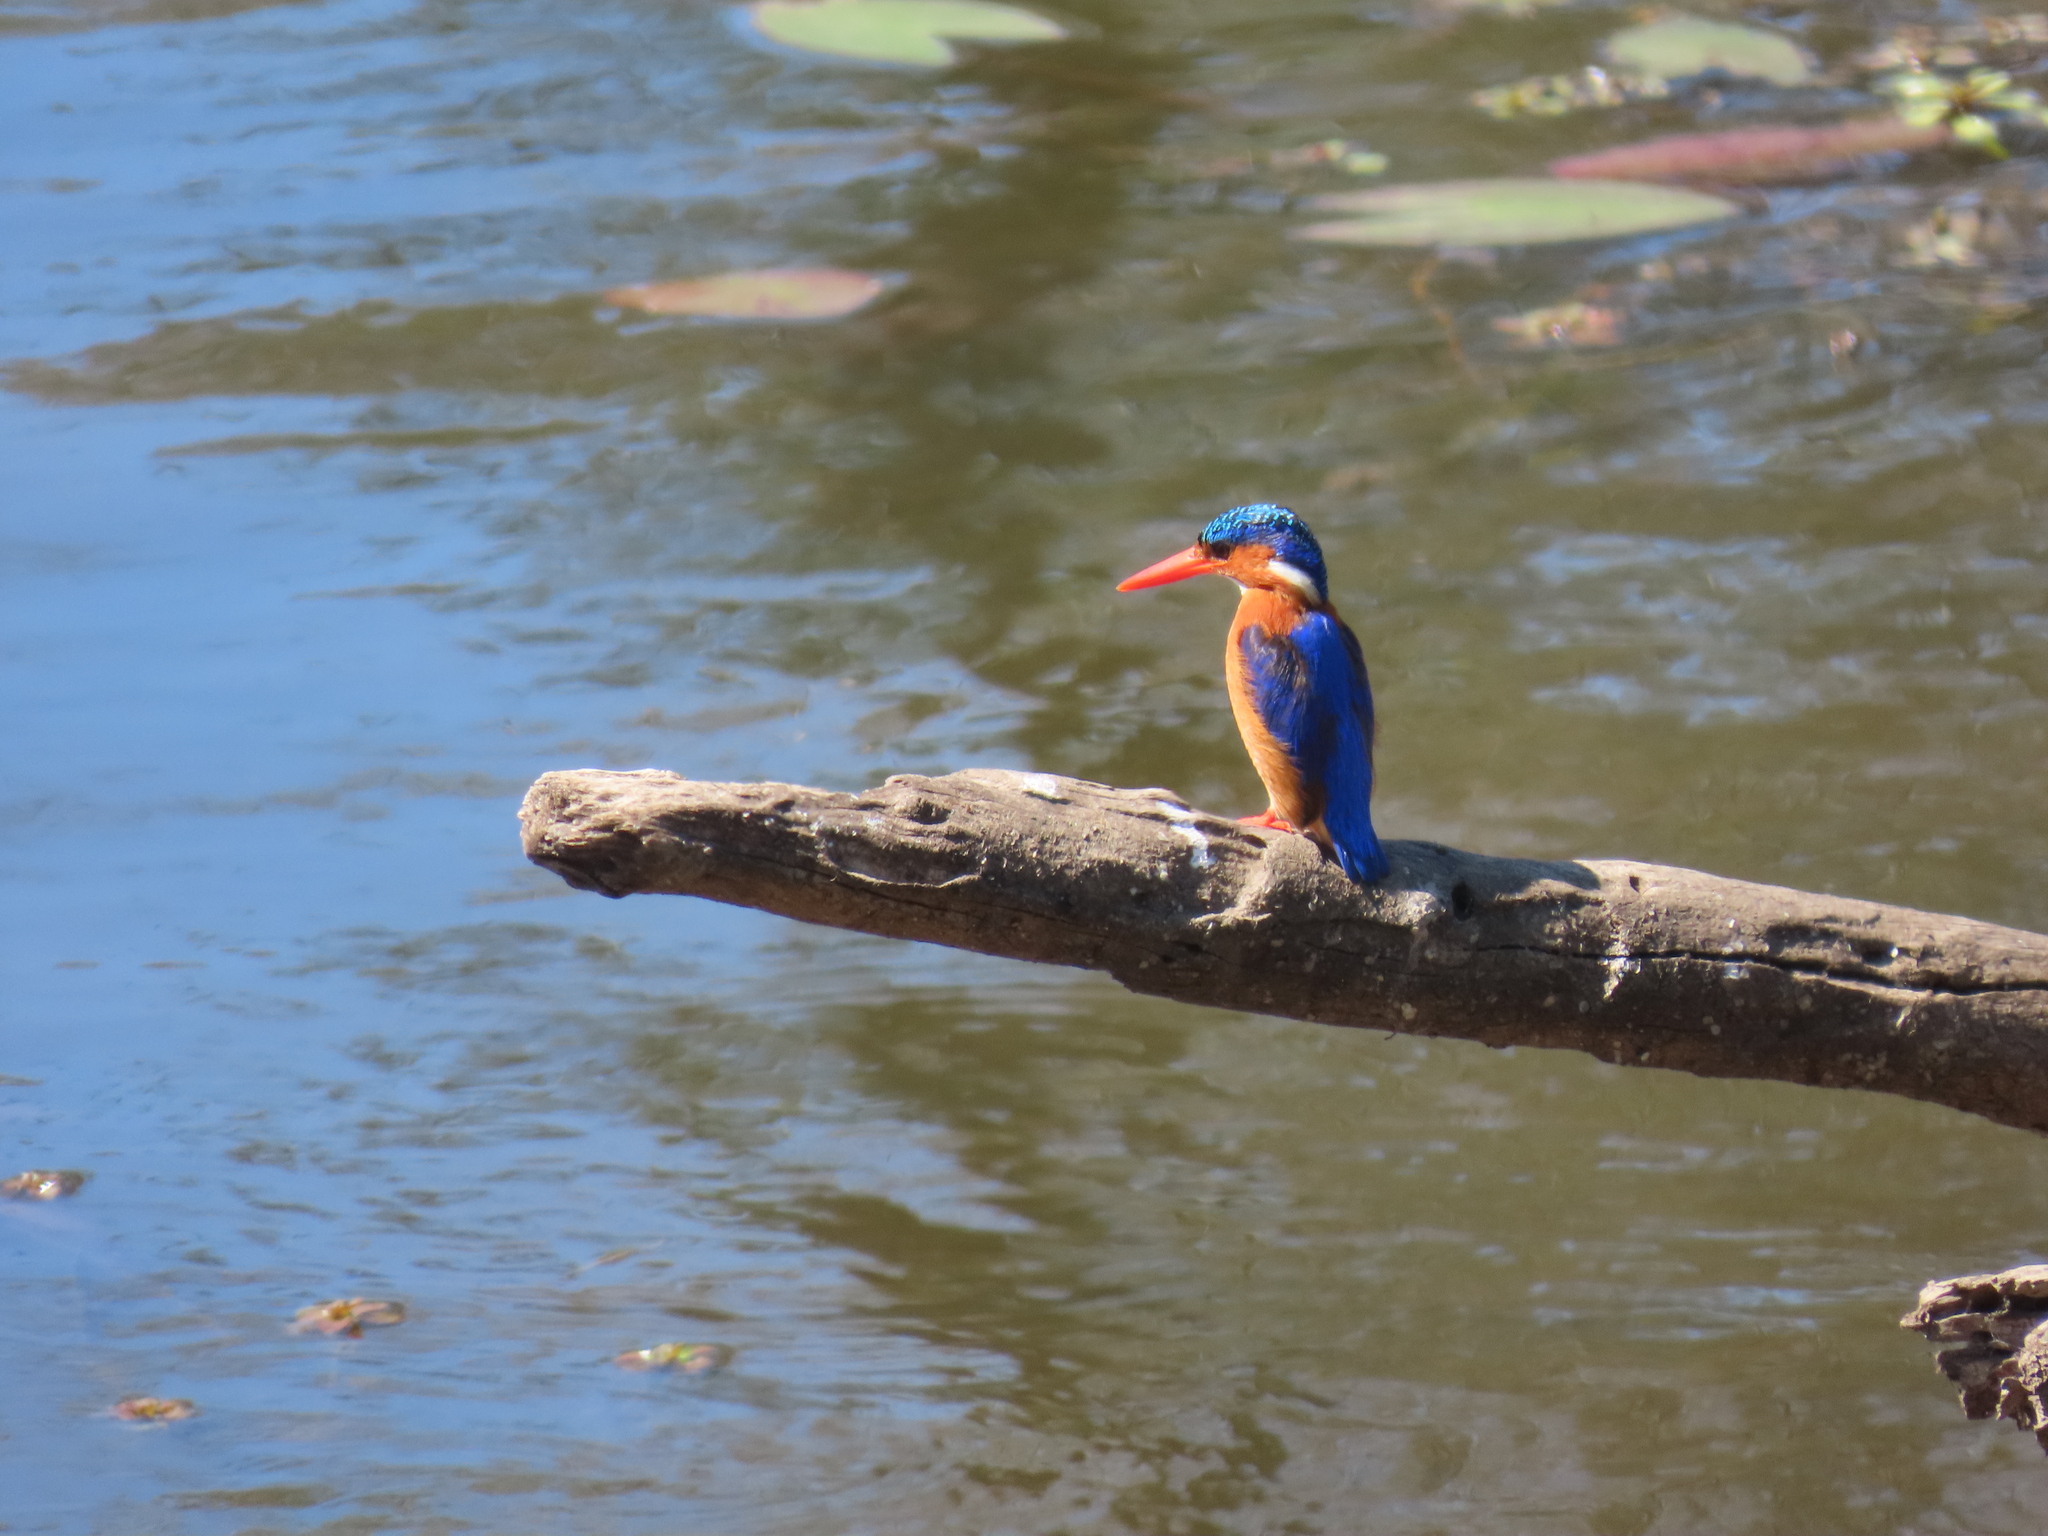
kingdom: Animalia
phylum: Chordata
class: Aves
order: Coraciiformes
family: Alcedinidae
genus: Corythornis
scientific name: Corythornis cristatus
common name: Malachite kingfisher
